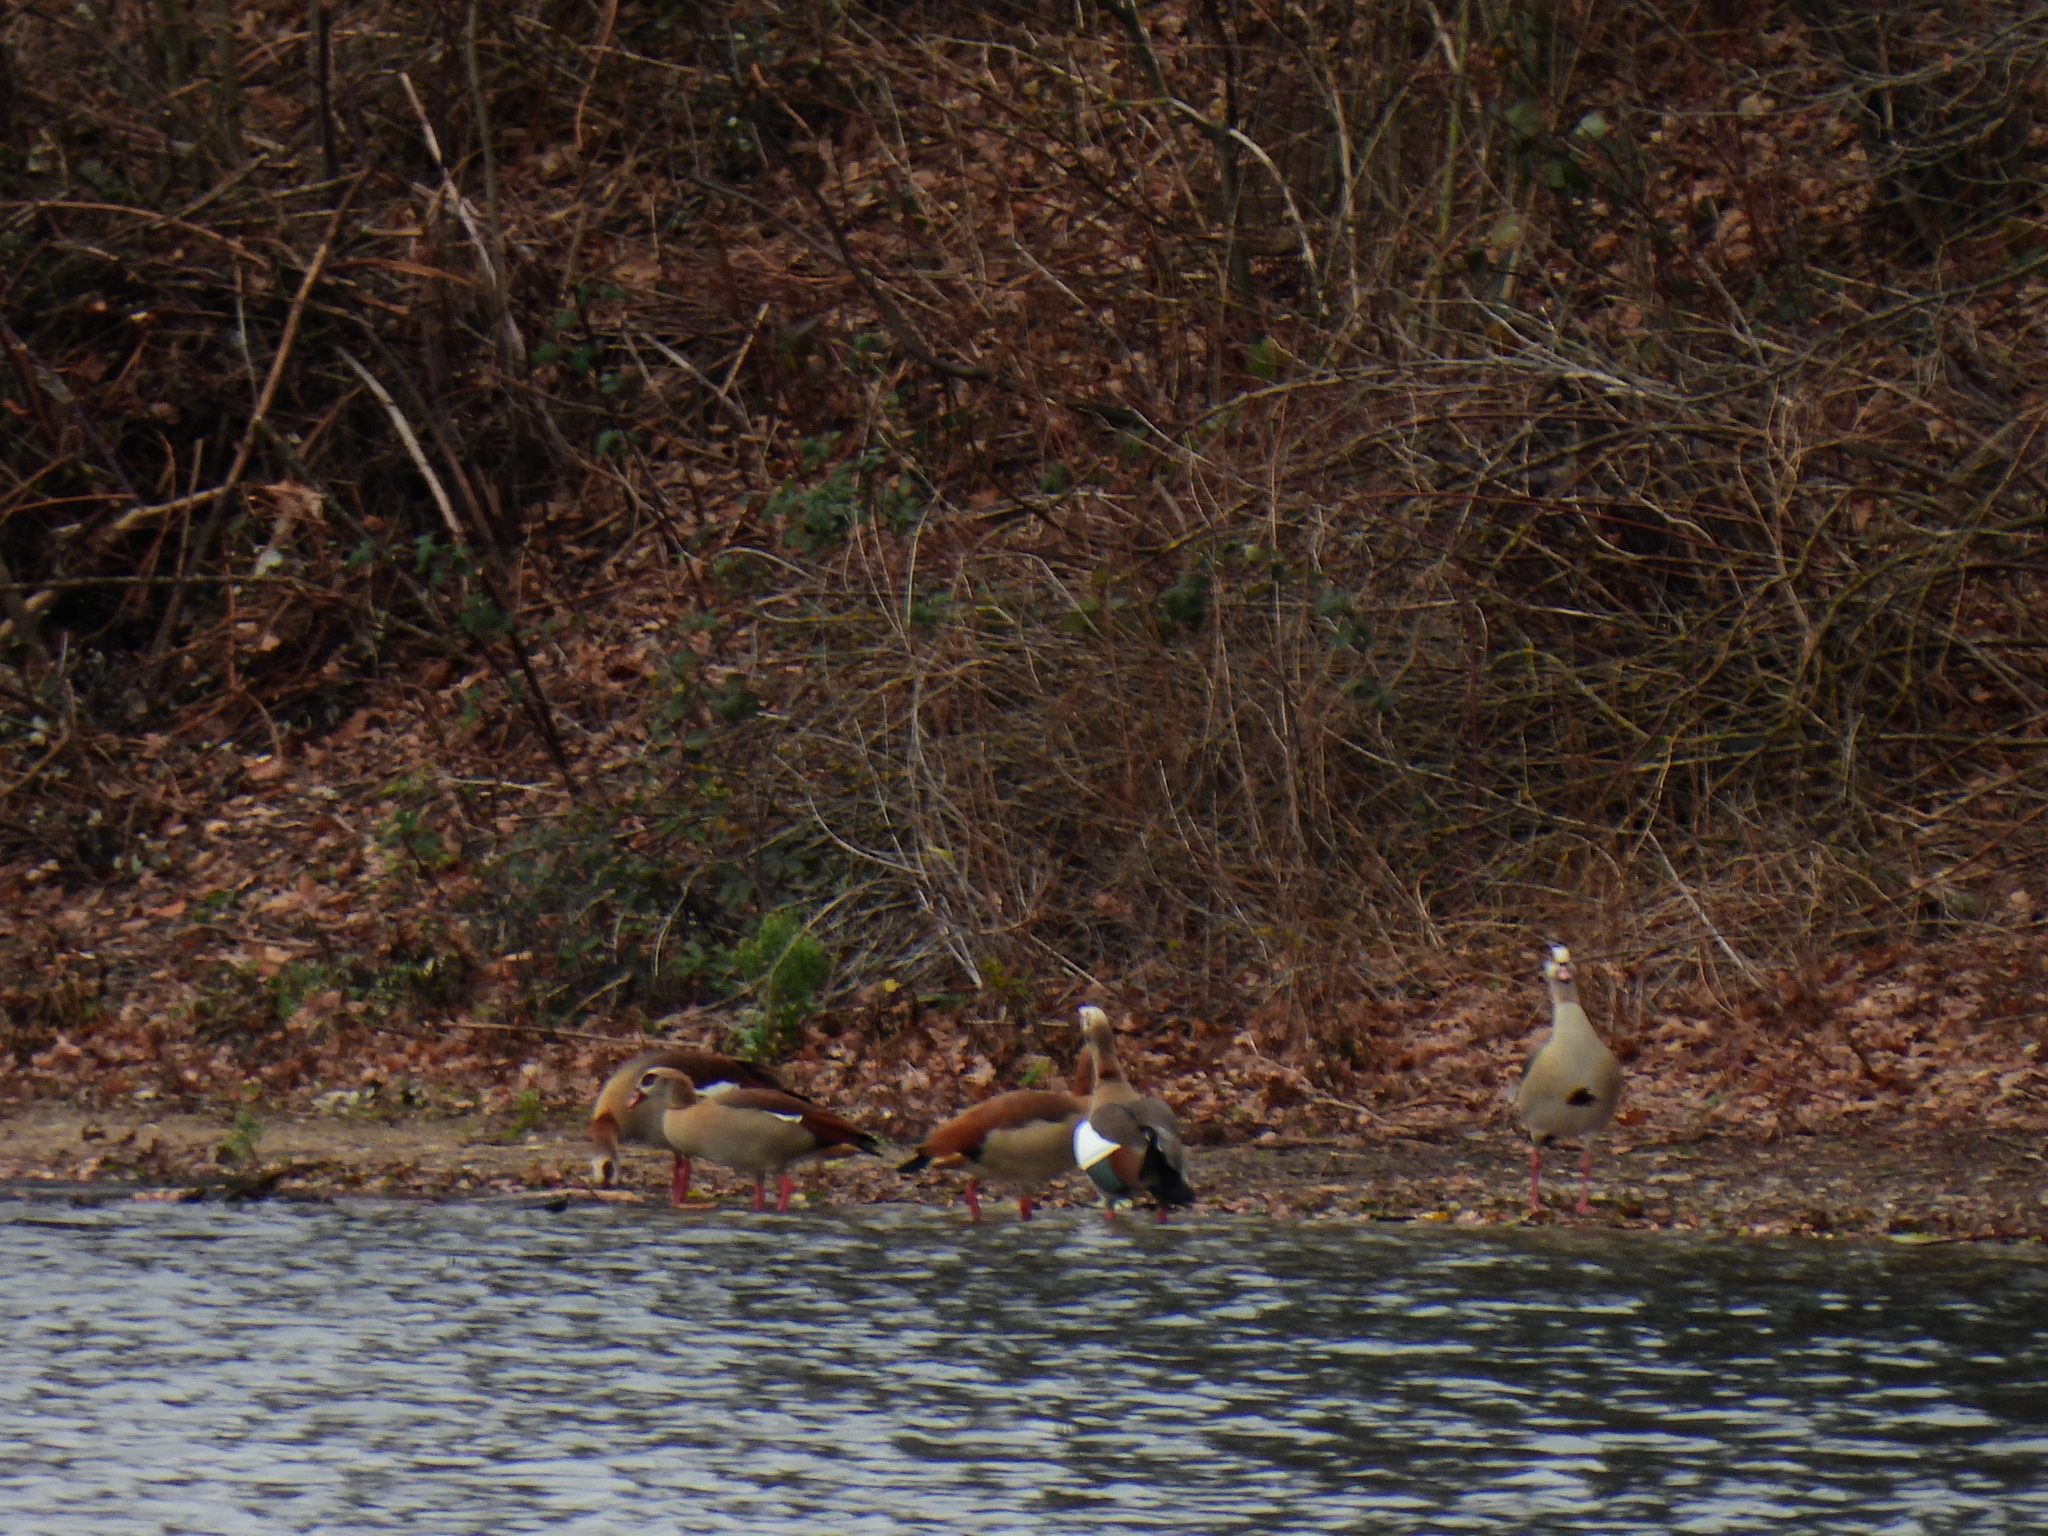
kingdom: Animalia
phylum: Chordata
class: Aves
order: Anseriformes
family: Anatidae
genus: Alopochen
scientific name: Alopochen aegyptiaca
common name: Egyptian goose
